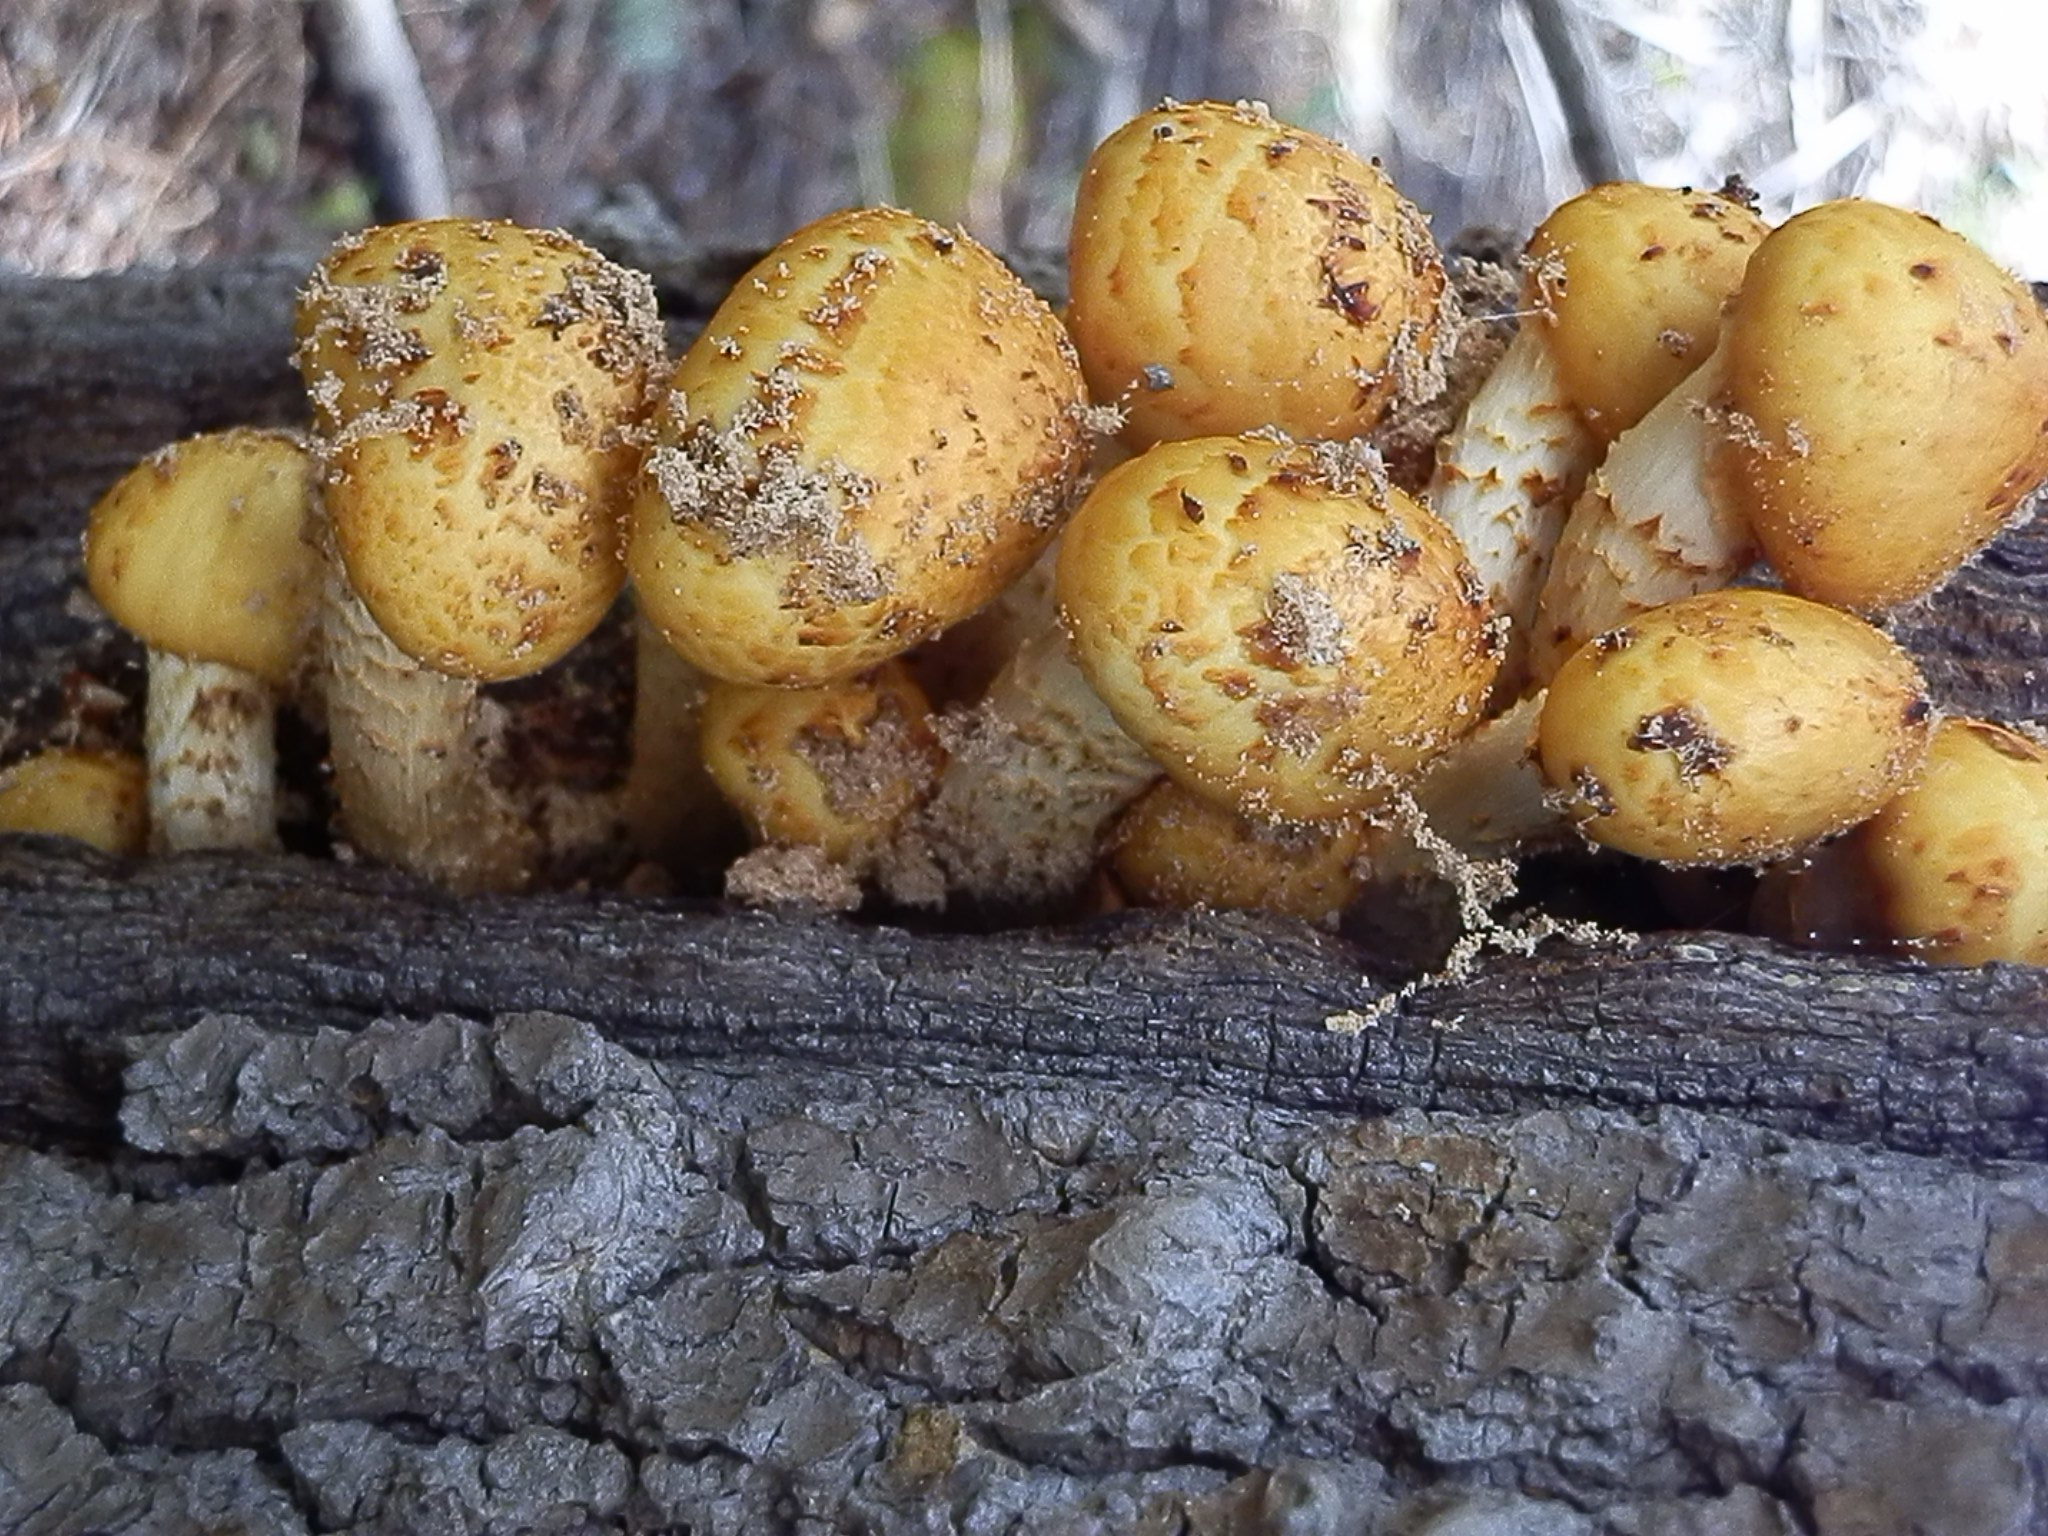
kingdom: Fungi
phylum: Basidiomycota
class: Agaricomycetes
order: Agaricales
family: Strophariaceae
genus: Pholiota
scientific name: Pholiota adiposa
